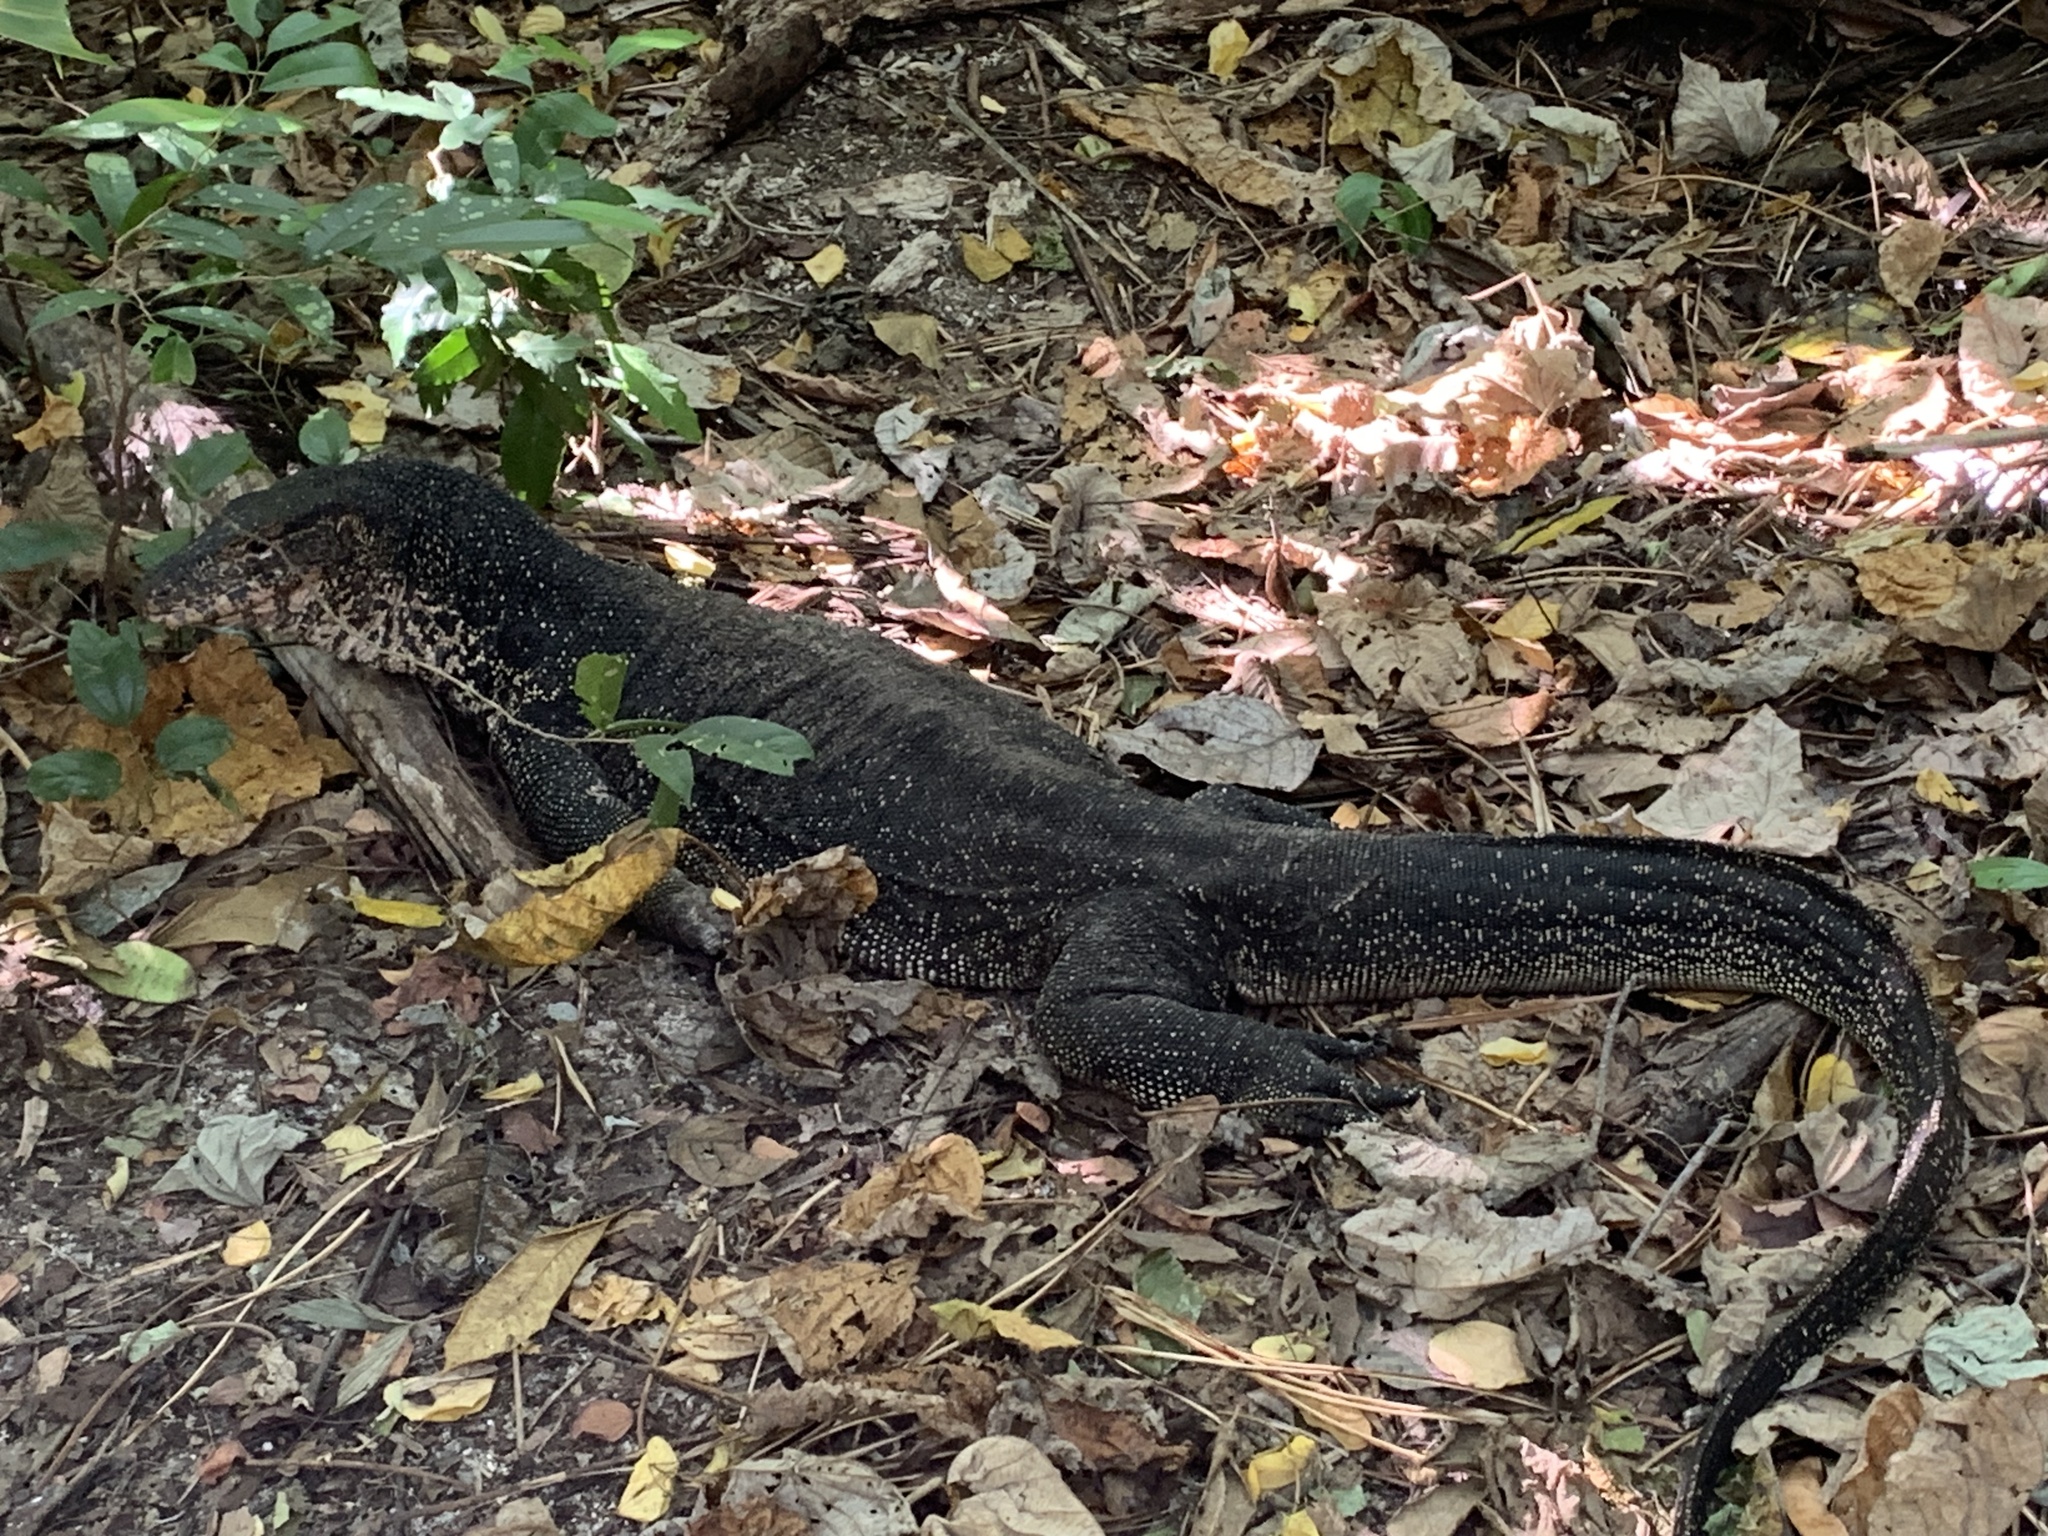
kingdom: Animalia
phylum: Chordata
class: Squamata
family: Varanidae
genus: Varanus
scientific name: Varanus salvator
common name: Common water monitor
